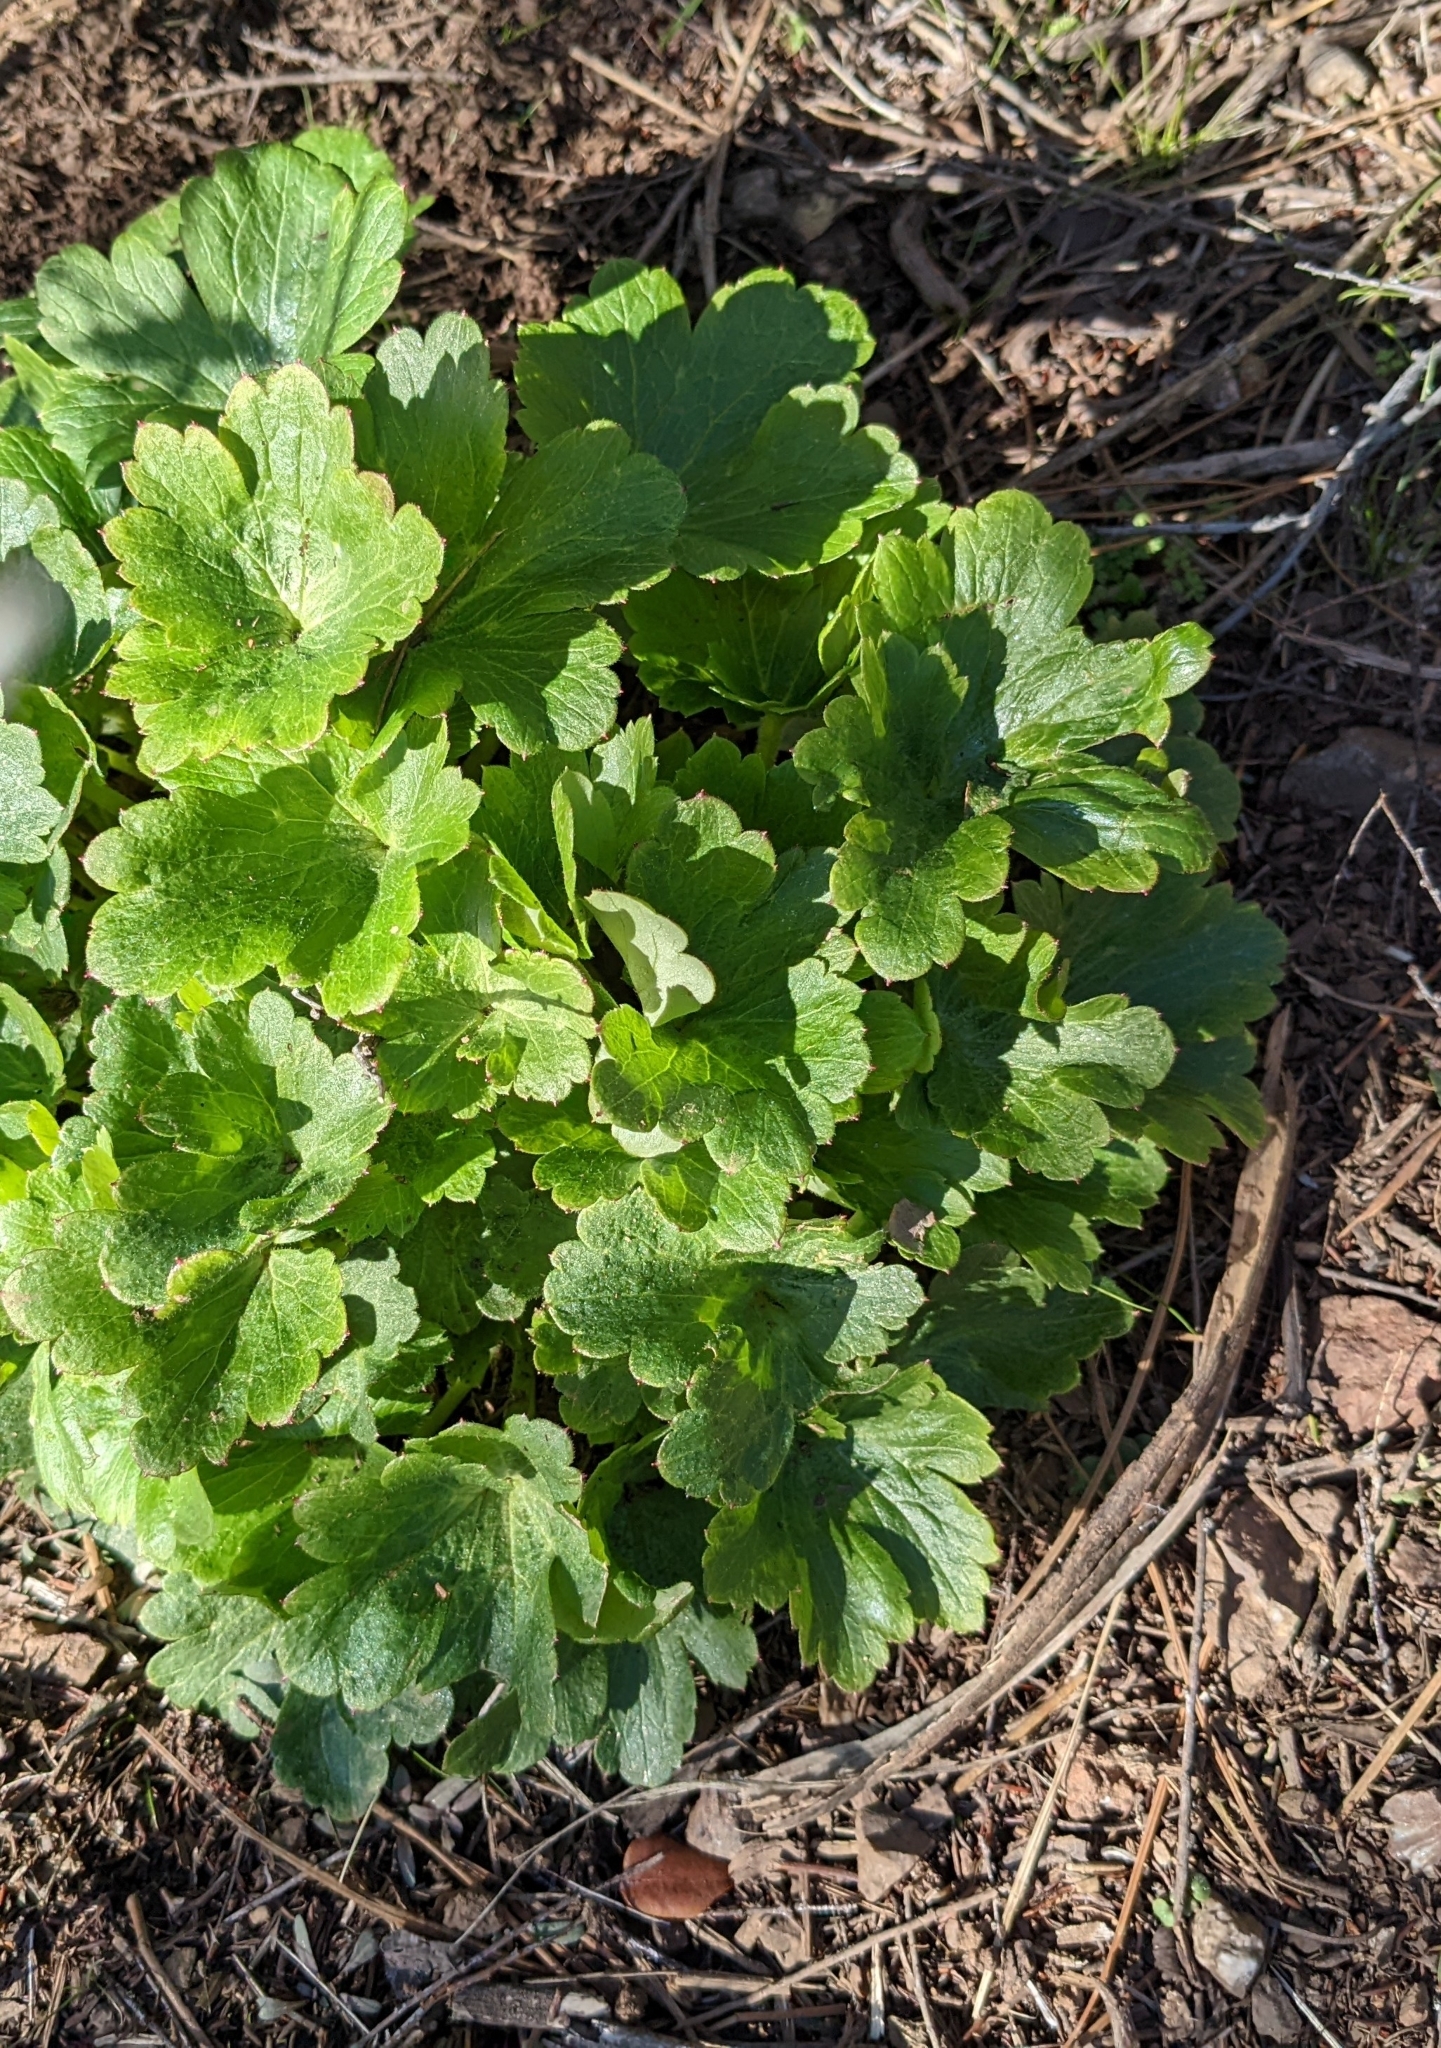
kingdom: Plantae
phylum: Tracheophyta
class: Magnoliopsida
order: Ranunculales
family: Ranunculaceae
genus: Delphinium
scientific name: Delphinium californicum
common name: California larkspur
